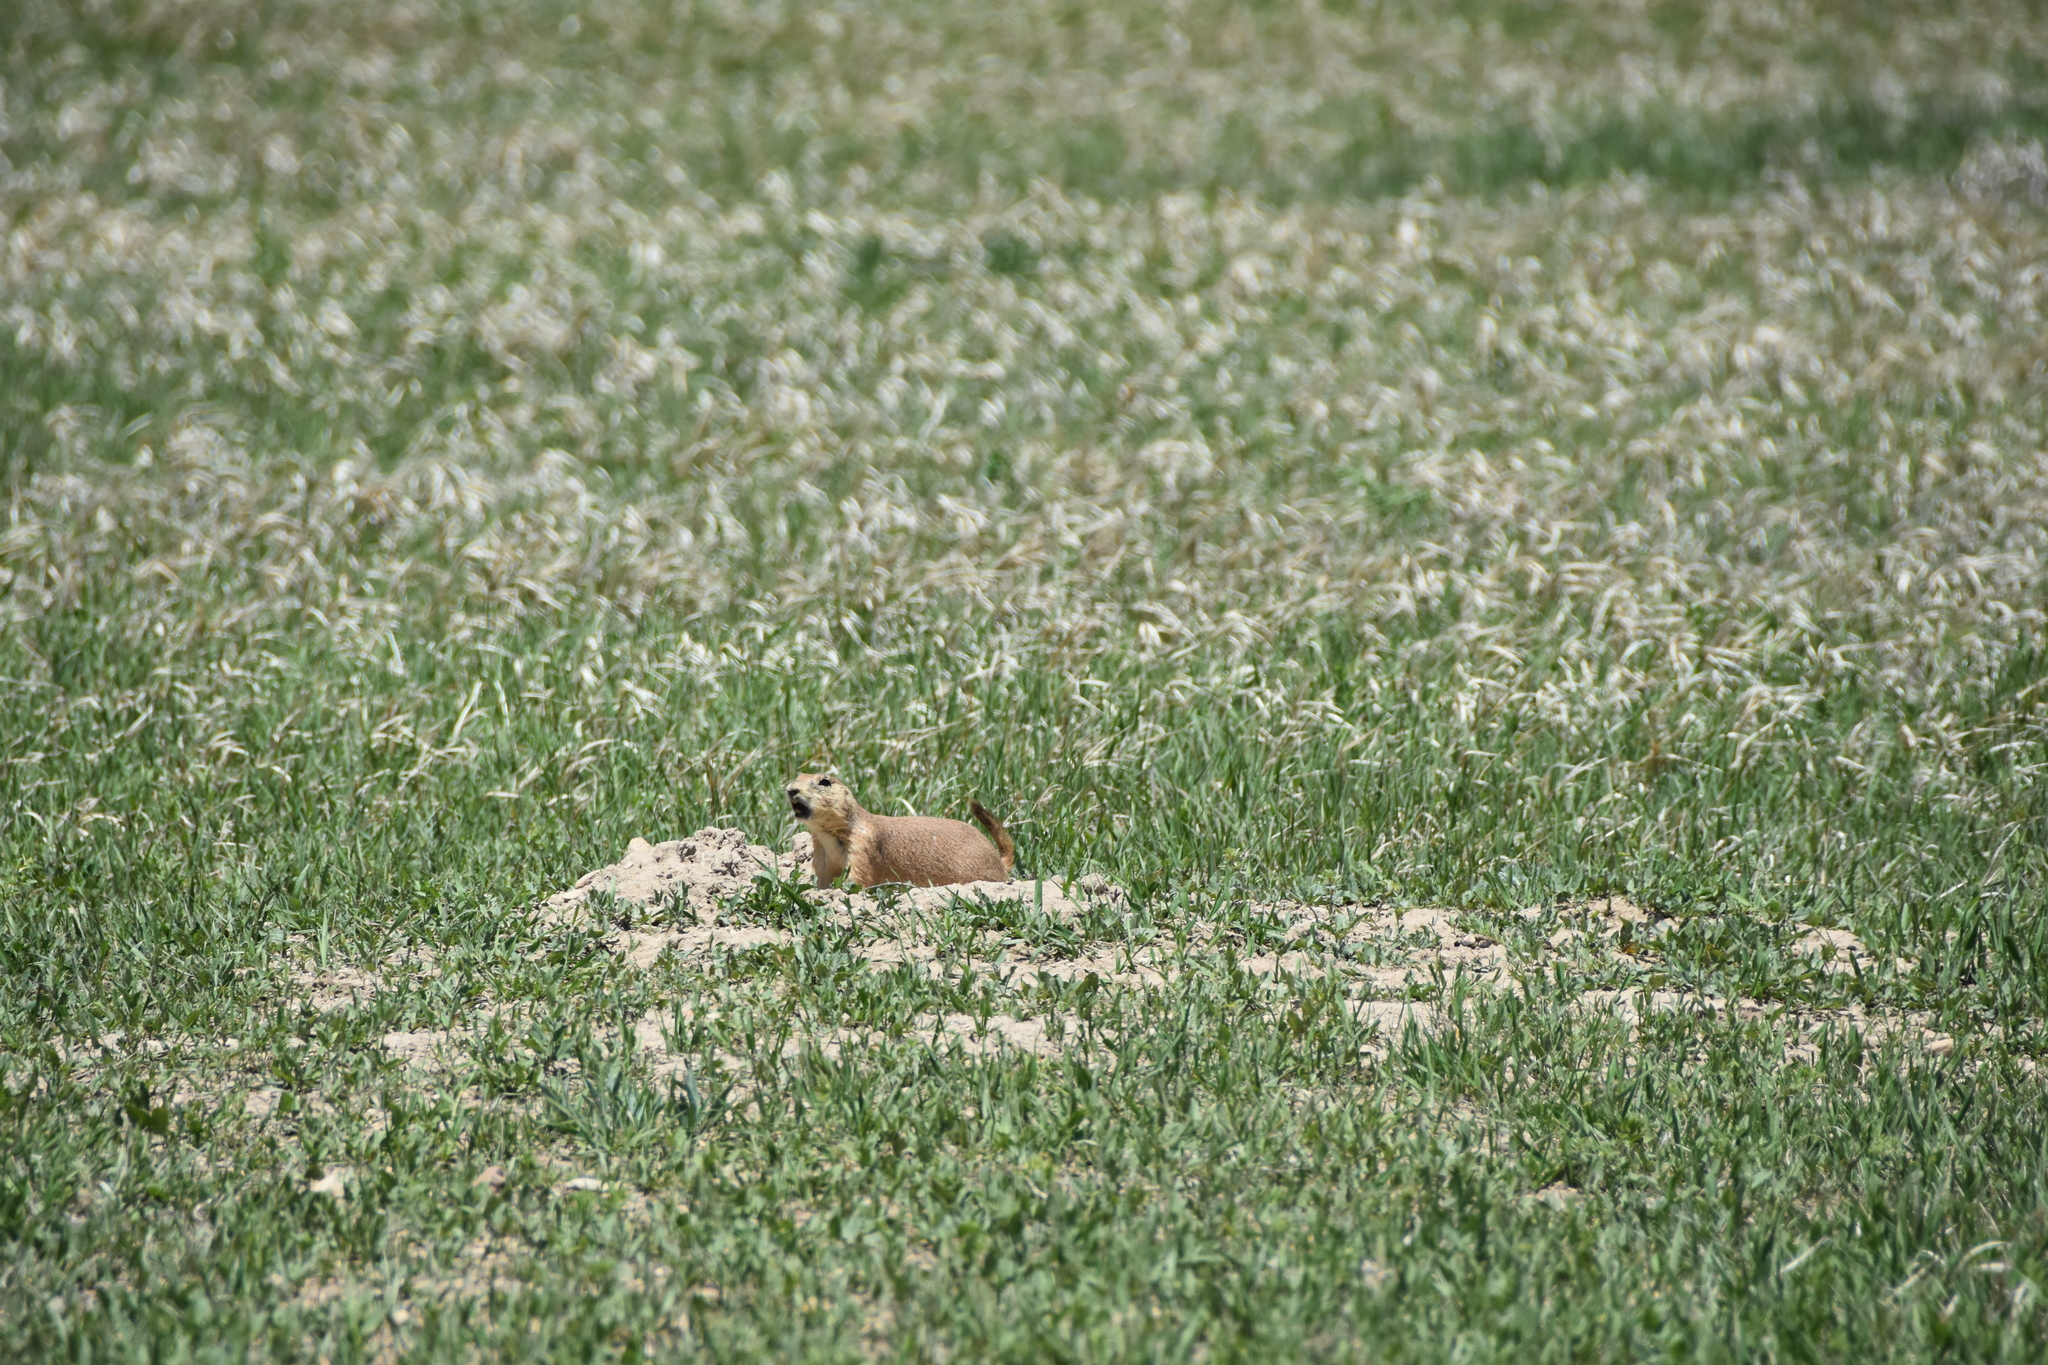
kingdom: Animalia
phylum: Chordata
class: Mammalia
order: Rodentia
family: Sciuridae
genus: Cynomys
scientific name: Cynomys ludovicianus
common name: Black-tailed prairie dog
